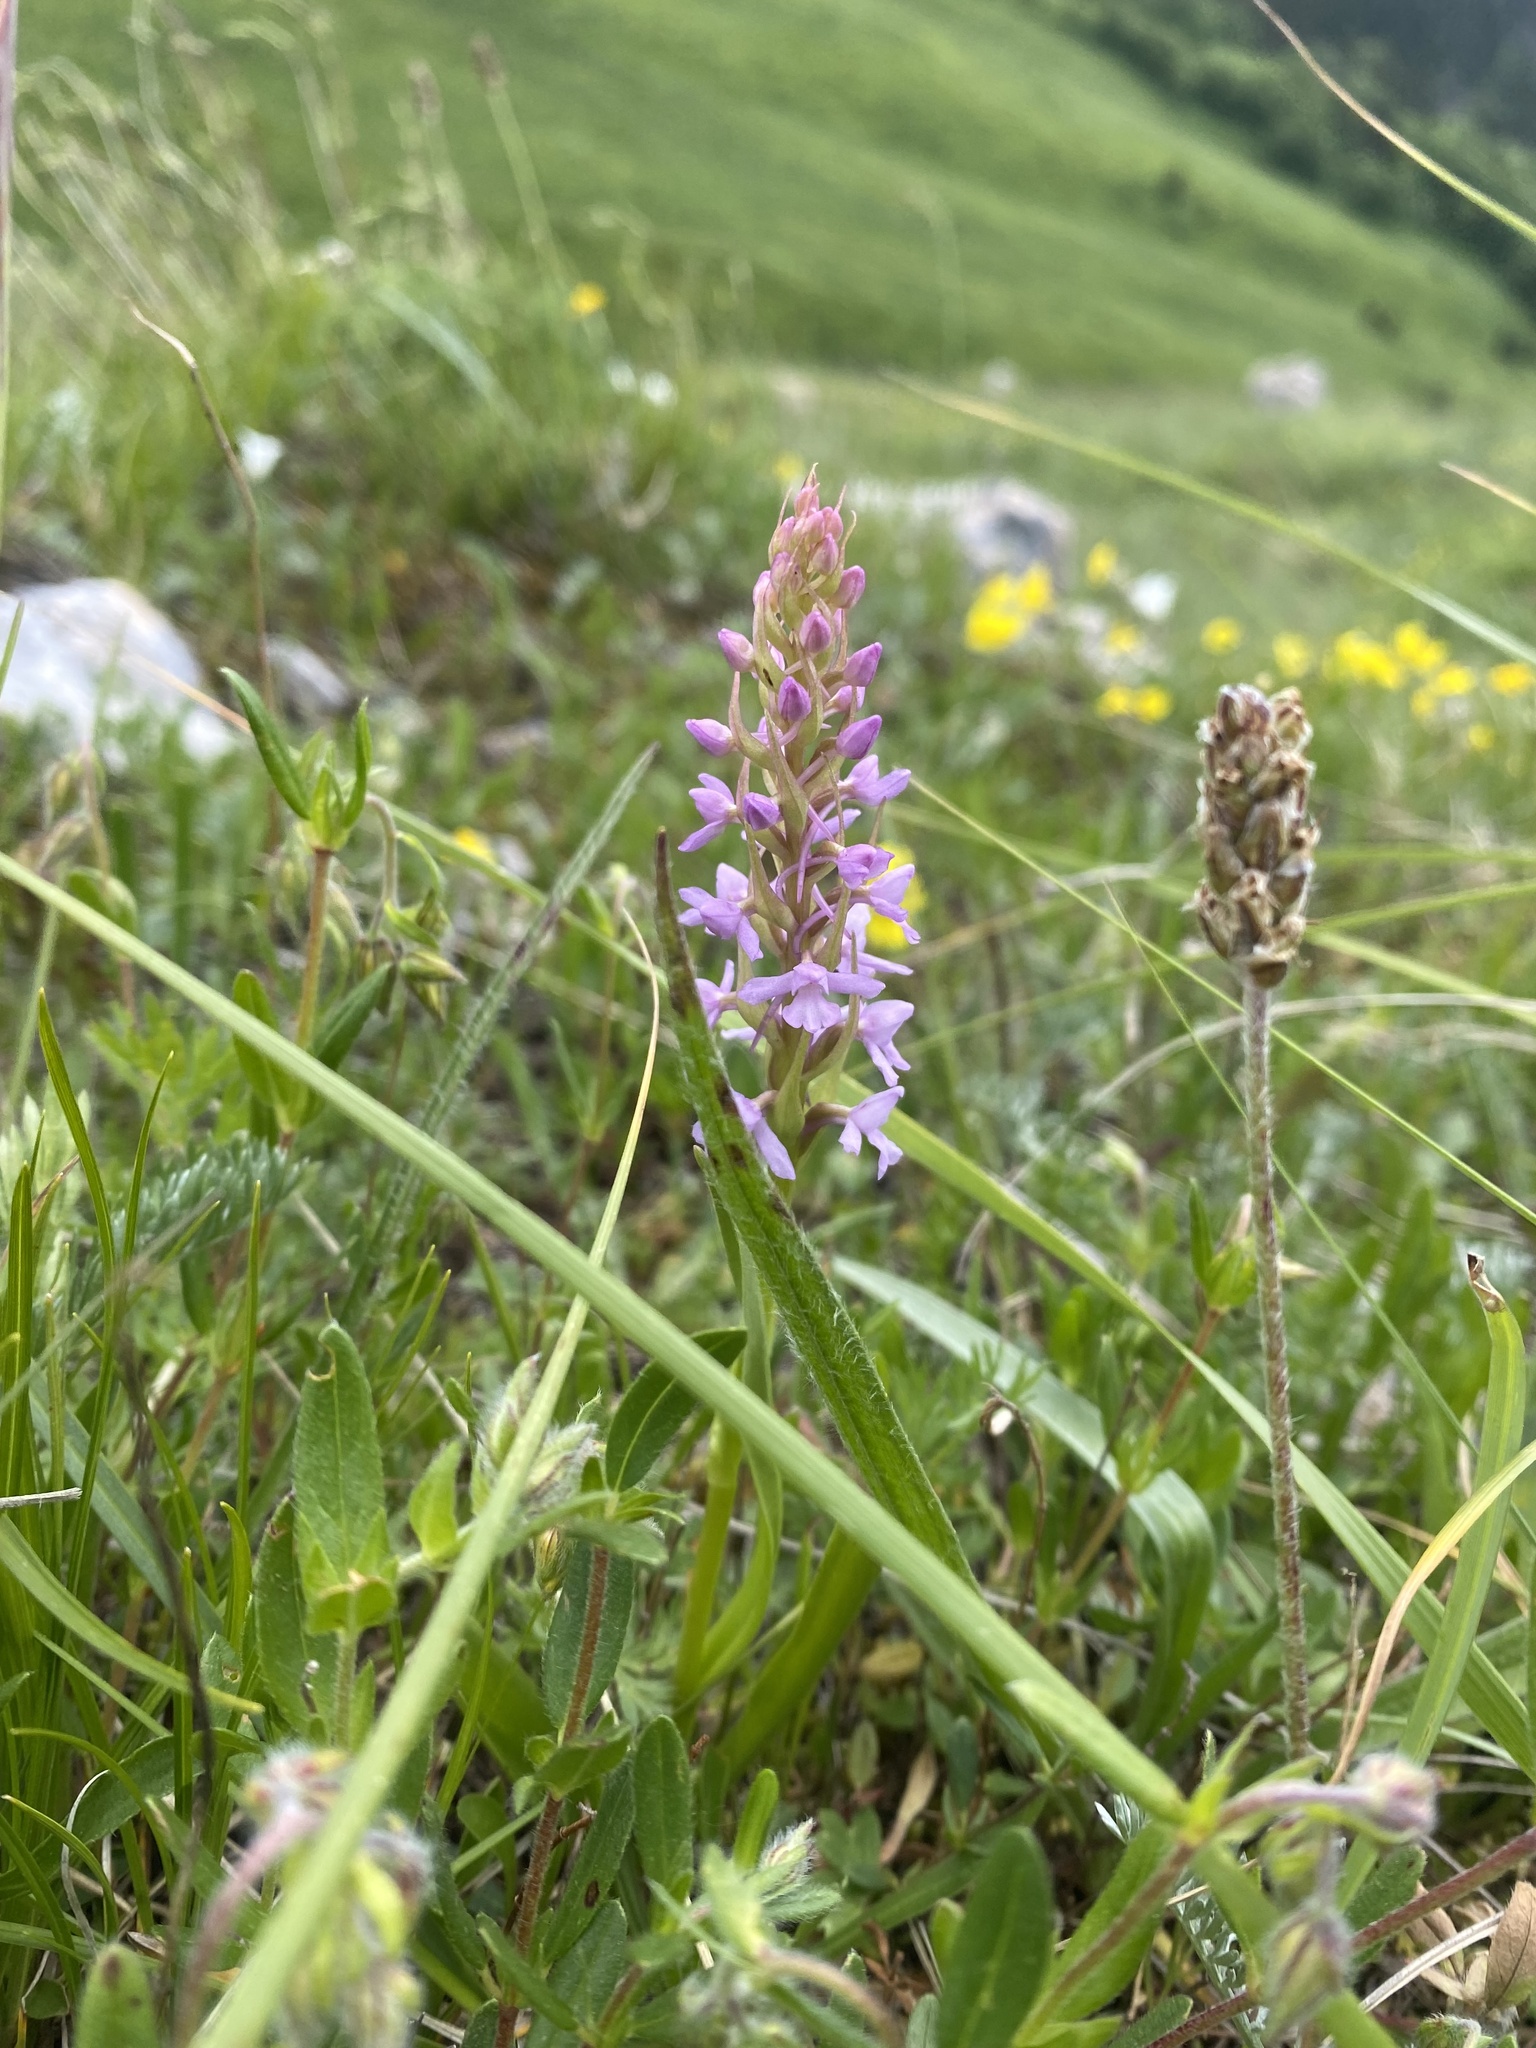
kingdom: Plantae
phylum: Tracheophyta
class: Liliopsida
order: Asparagales
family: Orchidaceae
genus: Gymnadenia
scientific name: Gymnadenia conopsea
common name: Fragrant orchid
